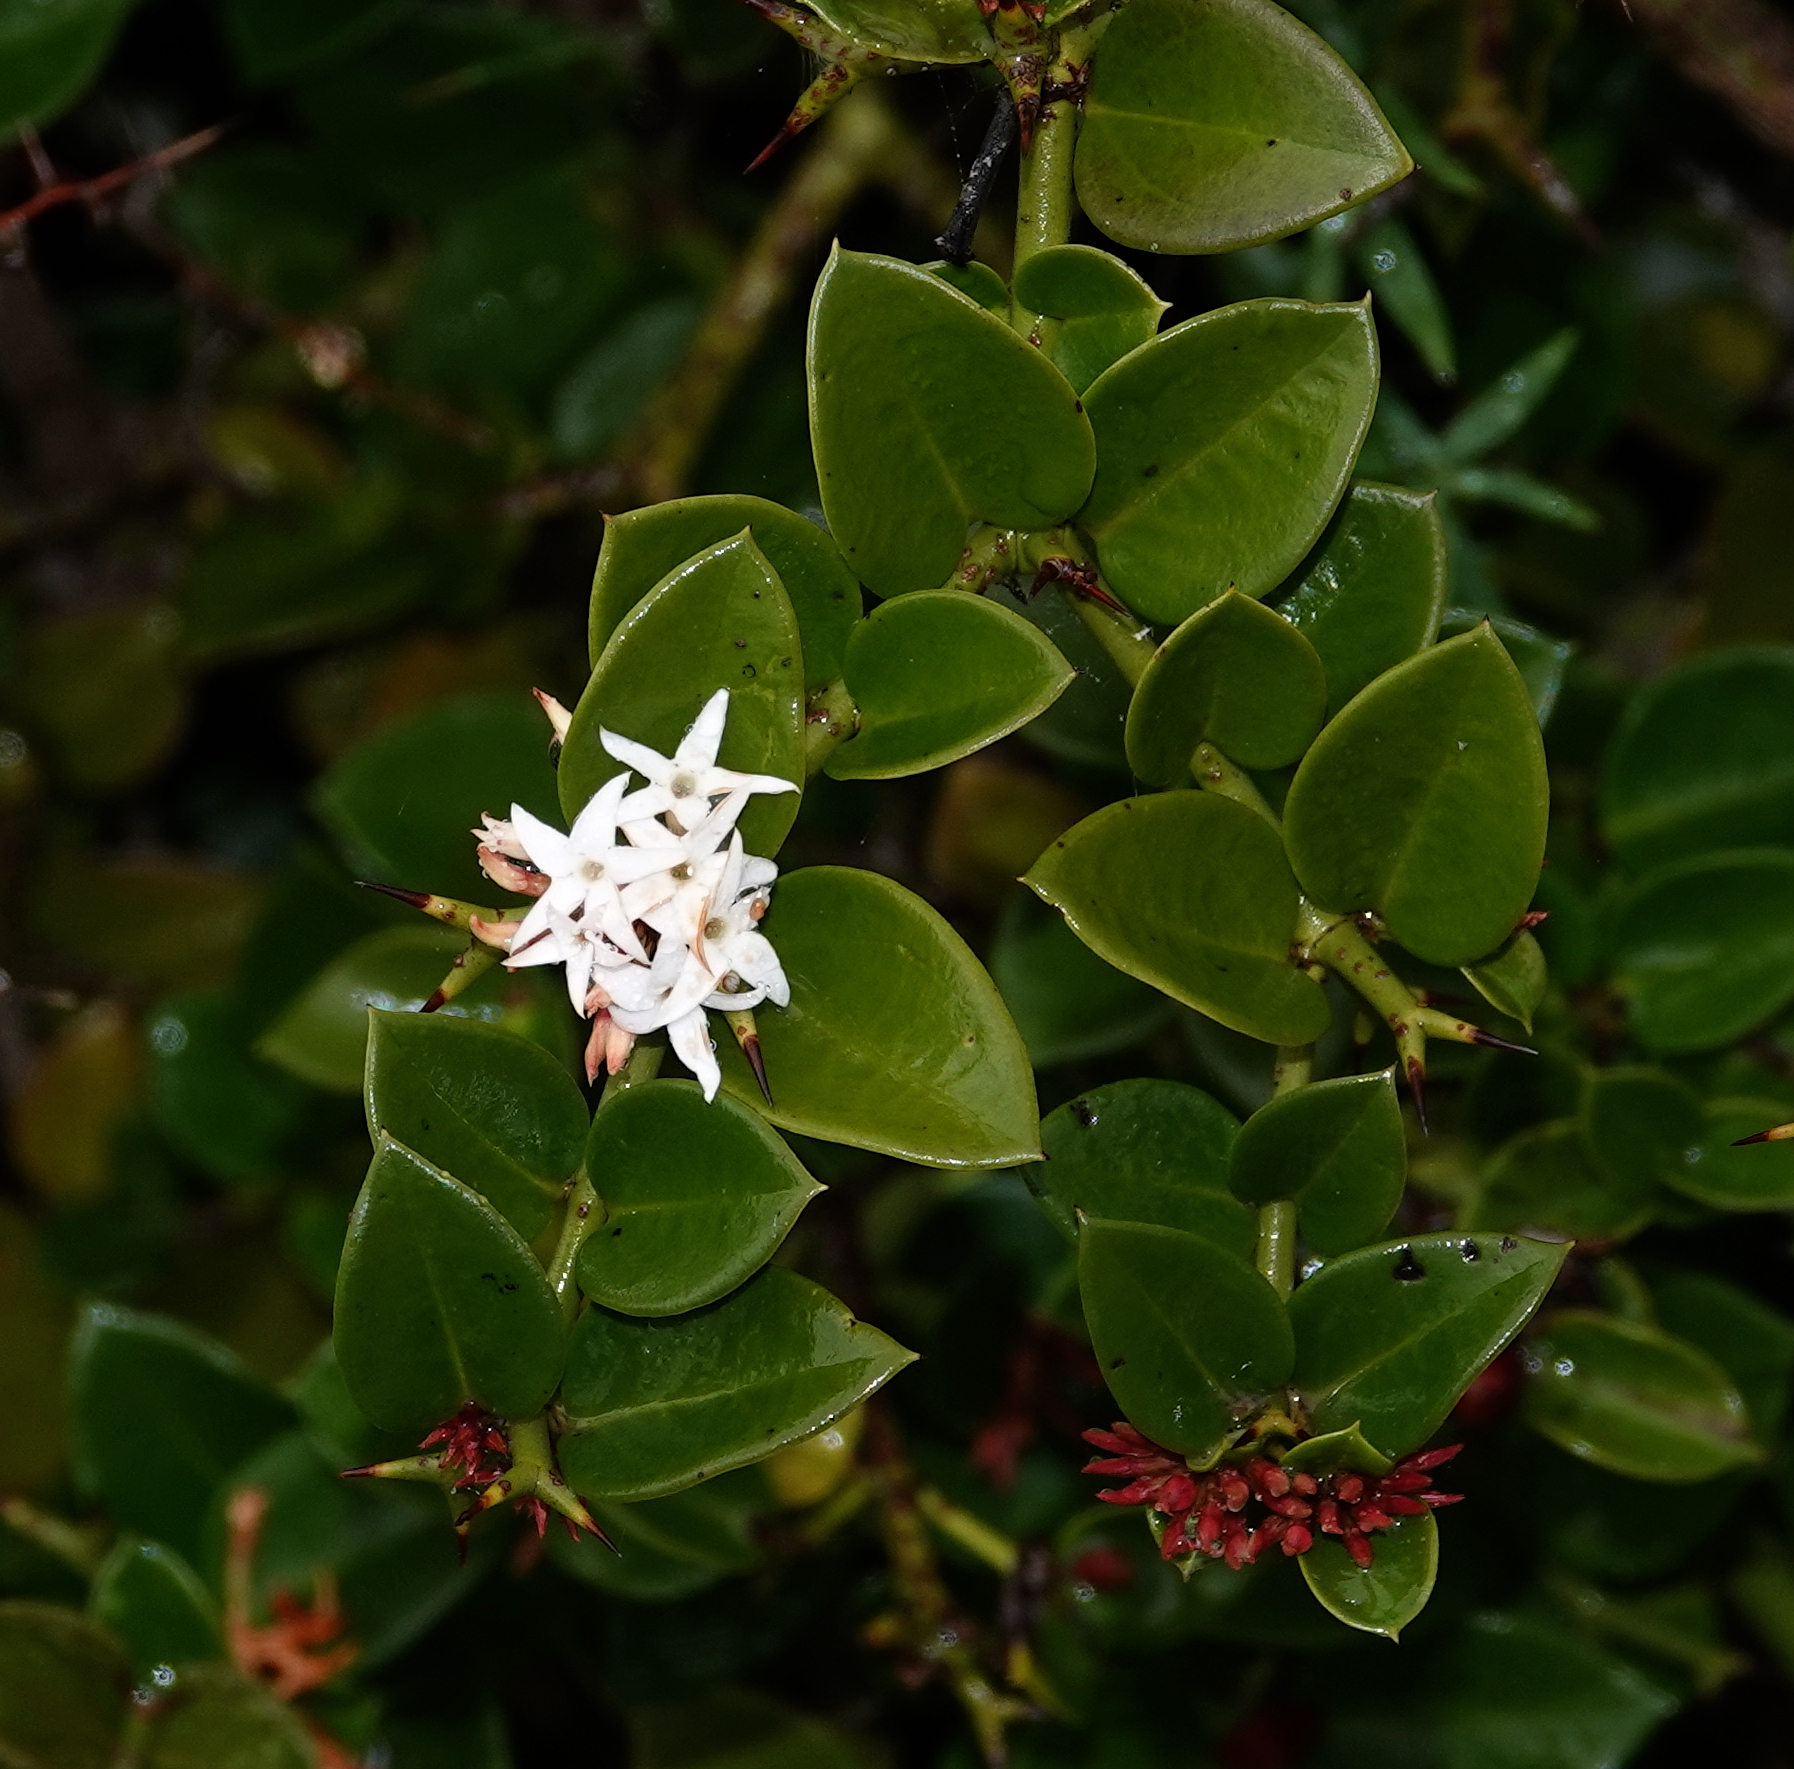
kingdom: Plantae
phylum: Tracheophyta
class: Magnoliopsida
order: Gentianales
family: Apocynaceae
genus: Carissa
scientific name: Carissa bispinosa
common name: Forest num-num
